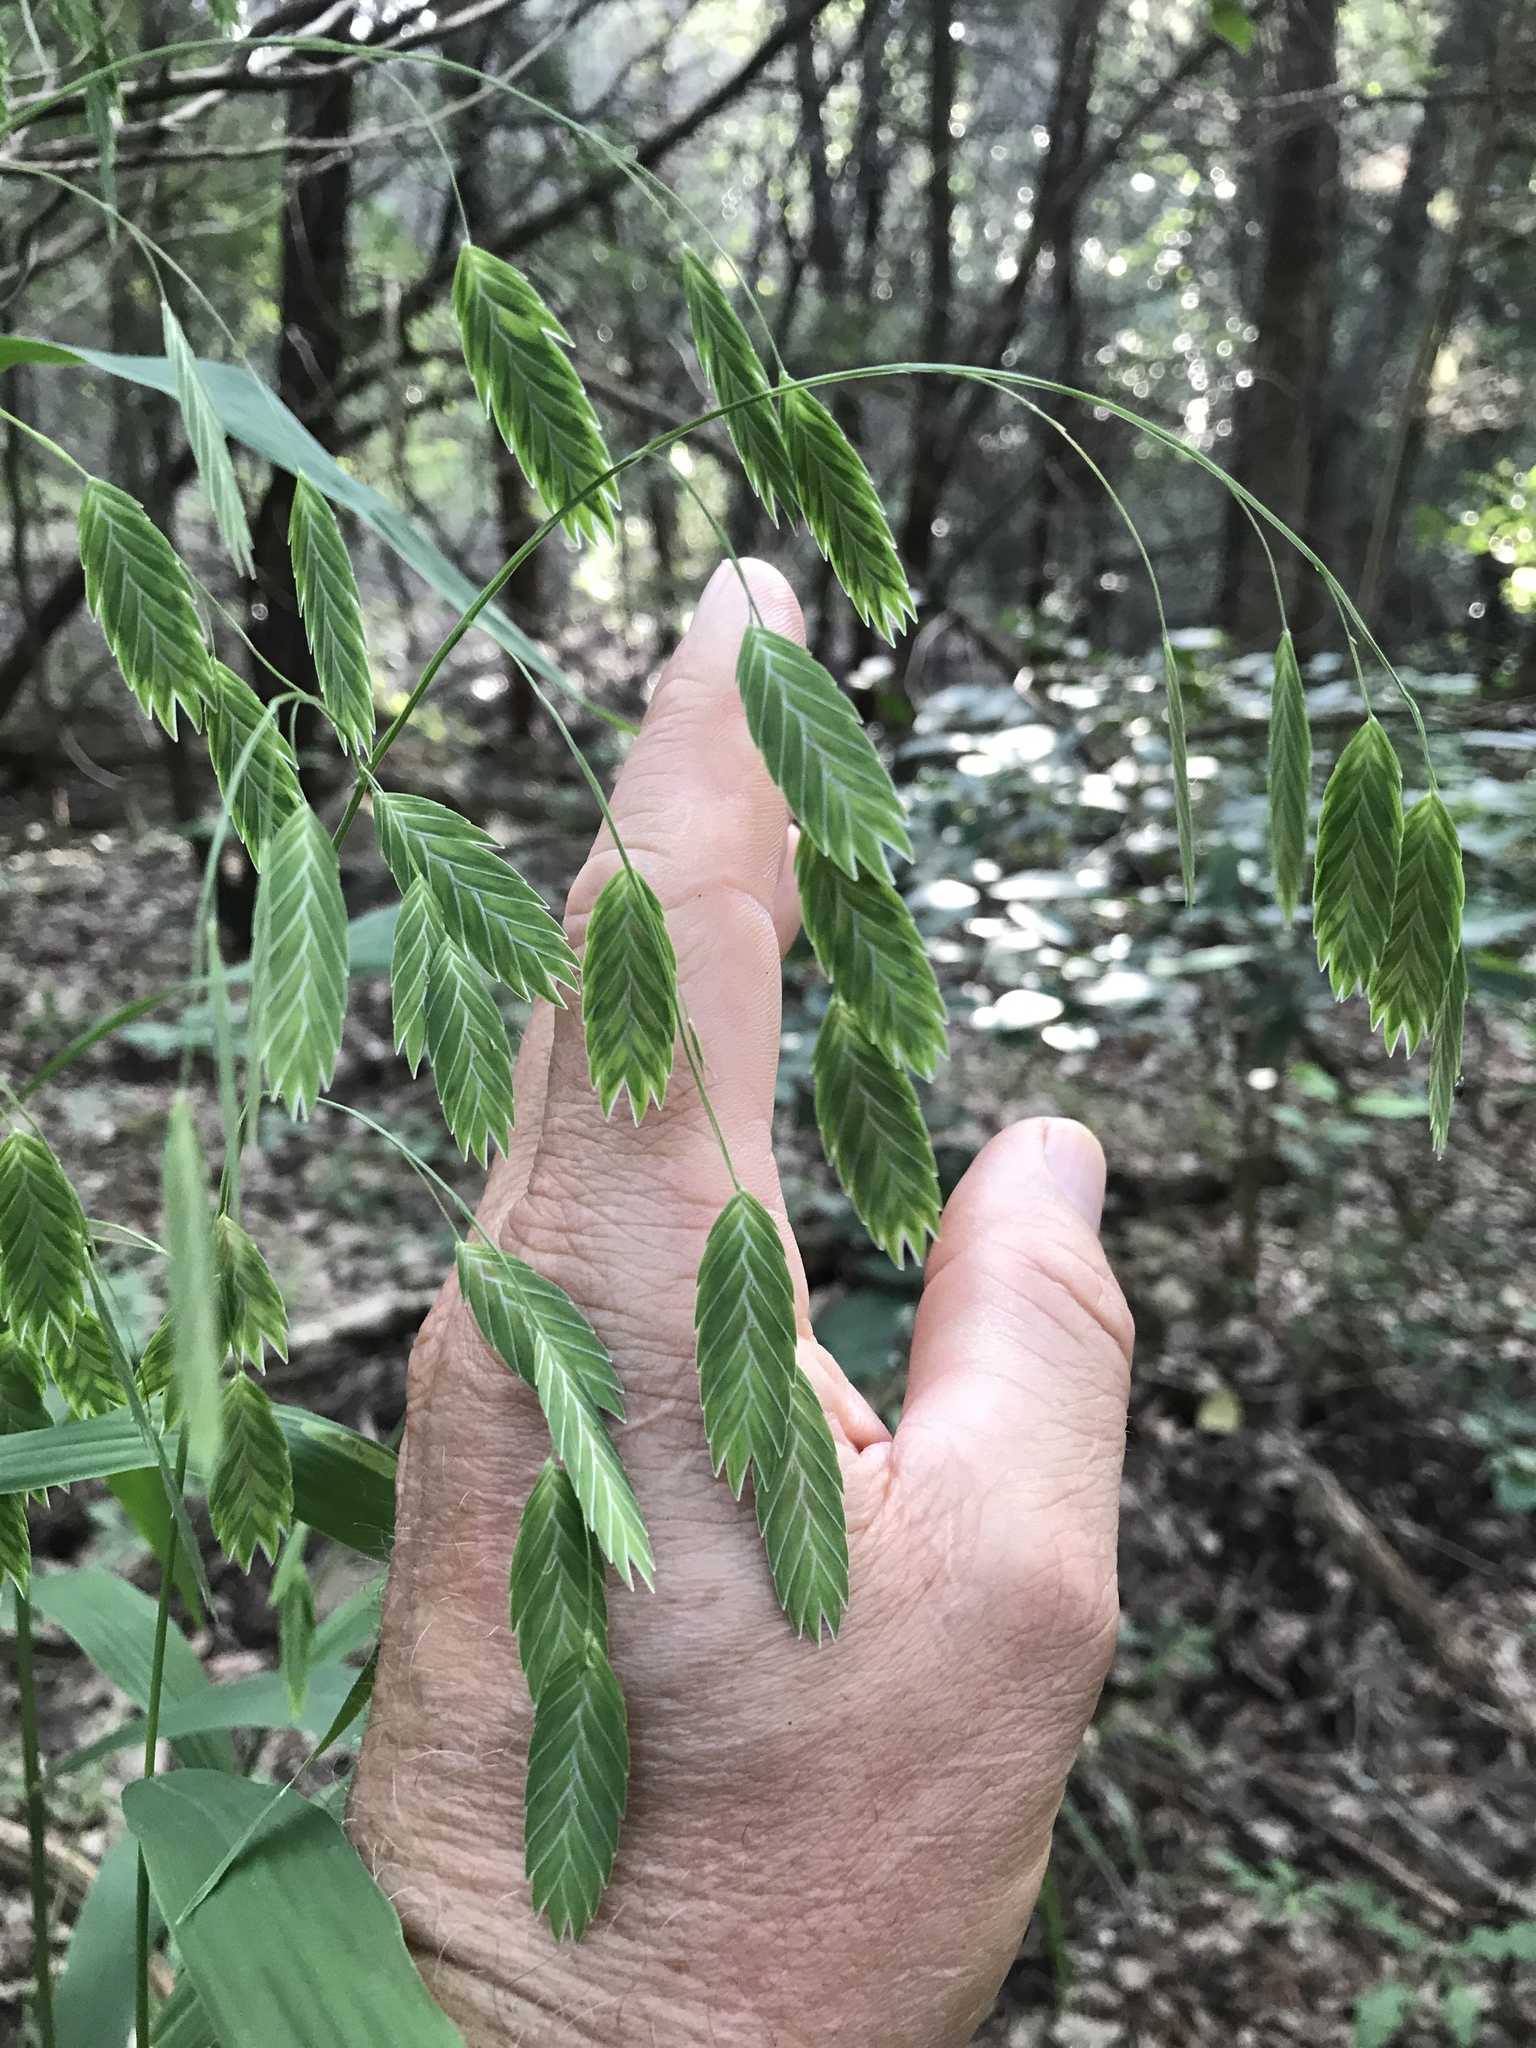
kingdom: Plantae
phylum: Tracheophyta
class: Liliopsida
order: Poales
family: Poaceae
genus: Chasmanthium
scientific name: Chasmanthium latifolium
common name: Broad-leaved chasmanthium
